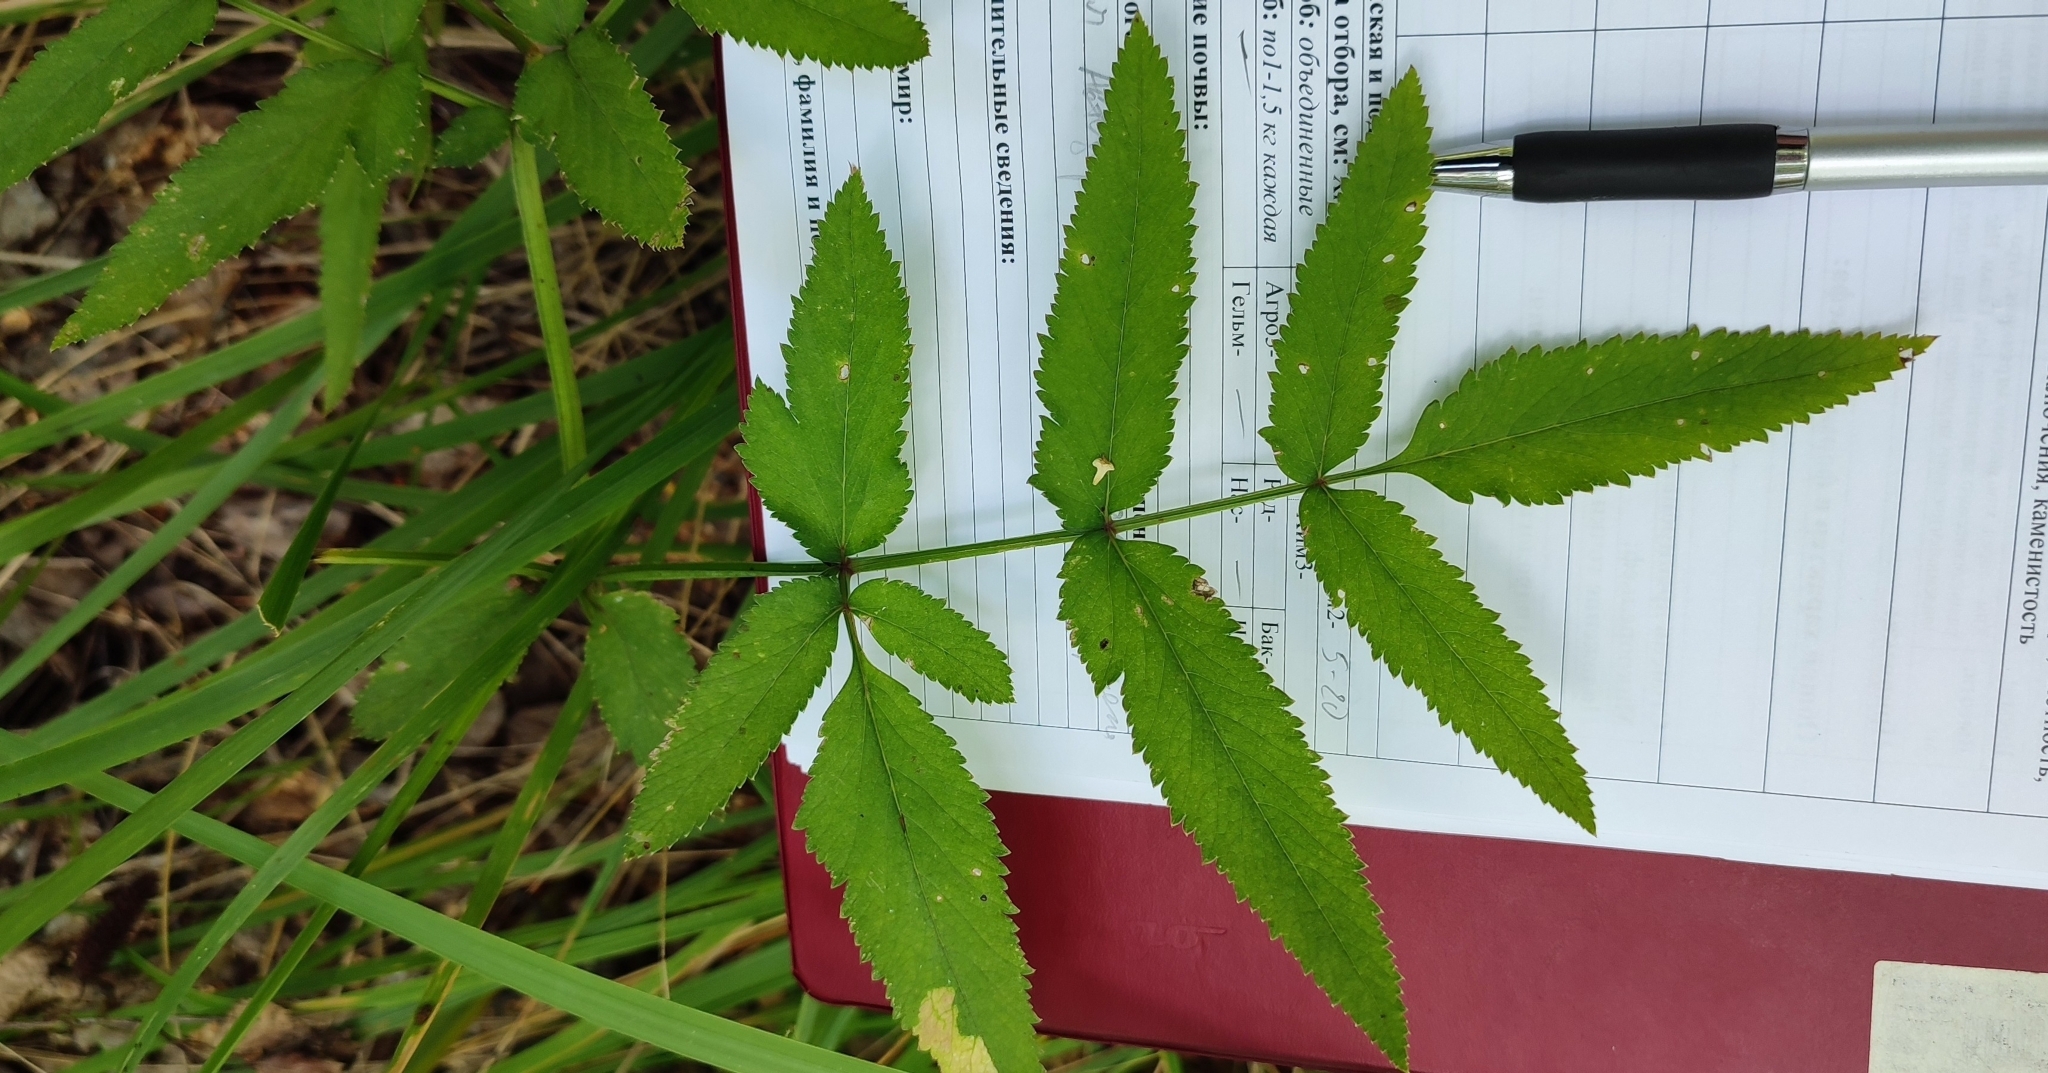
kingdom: Plantae
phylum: Tracheophyta
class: Magnoliopsida
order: Apiales
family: Apiaceae
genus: Angelica
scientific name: Angelica sylvestris
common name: Wild angelica
